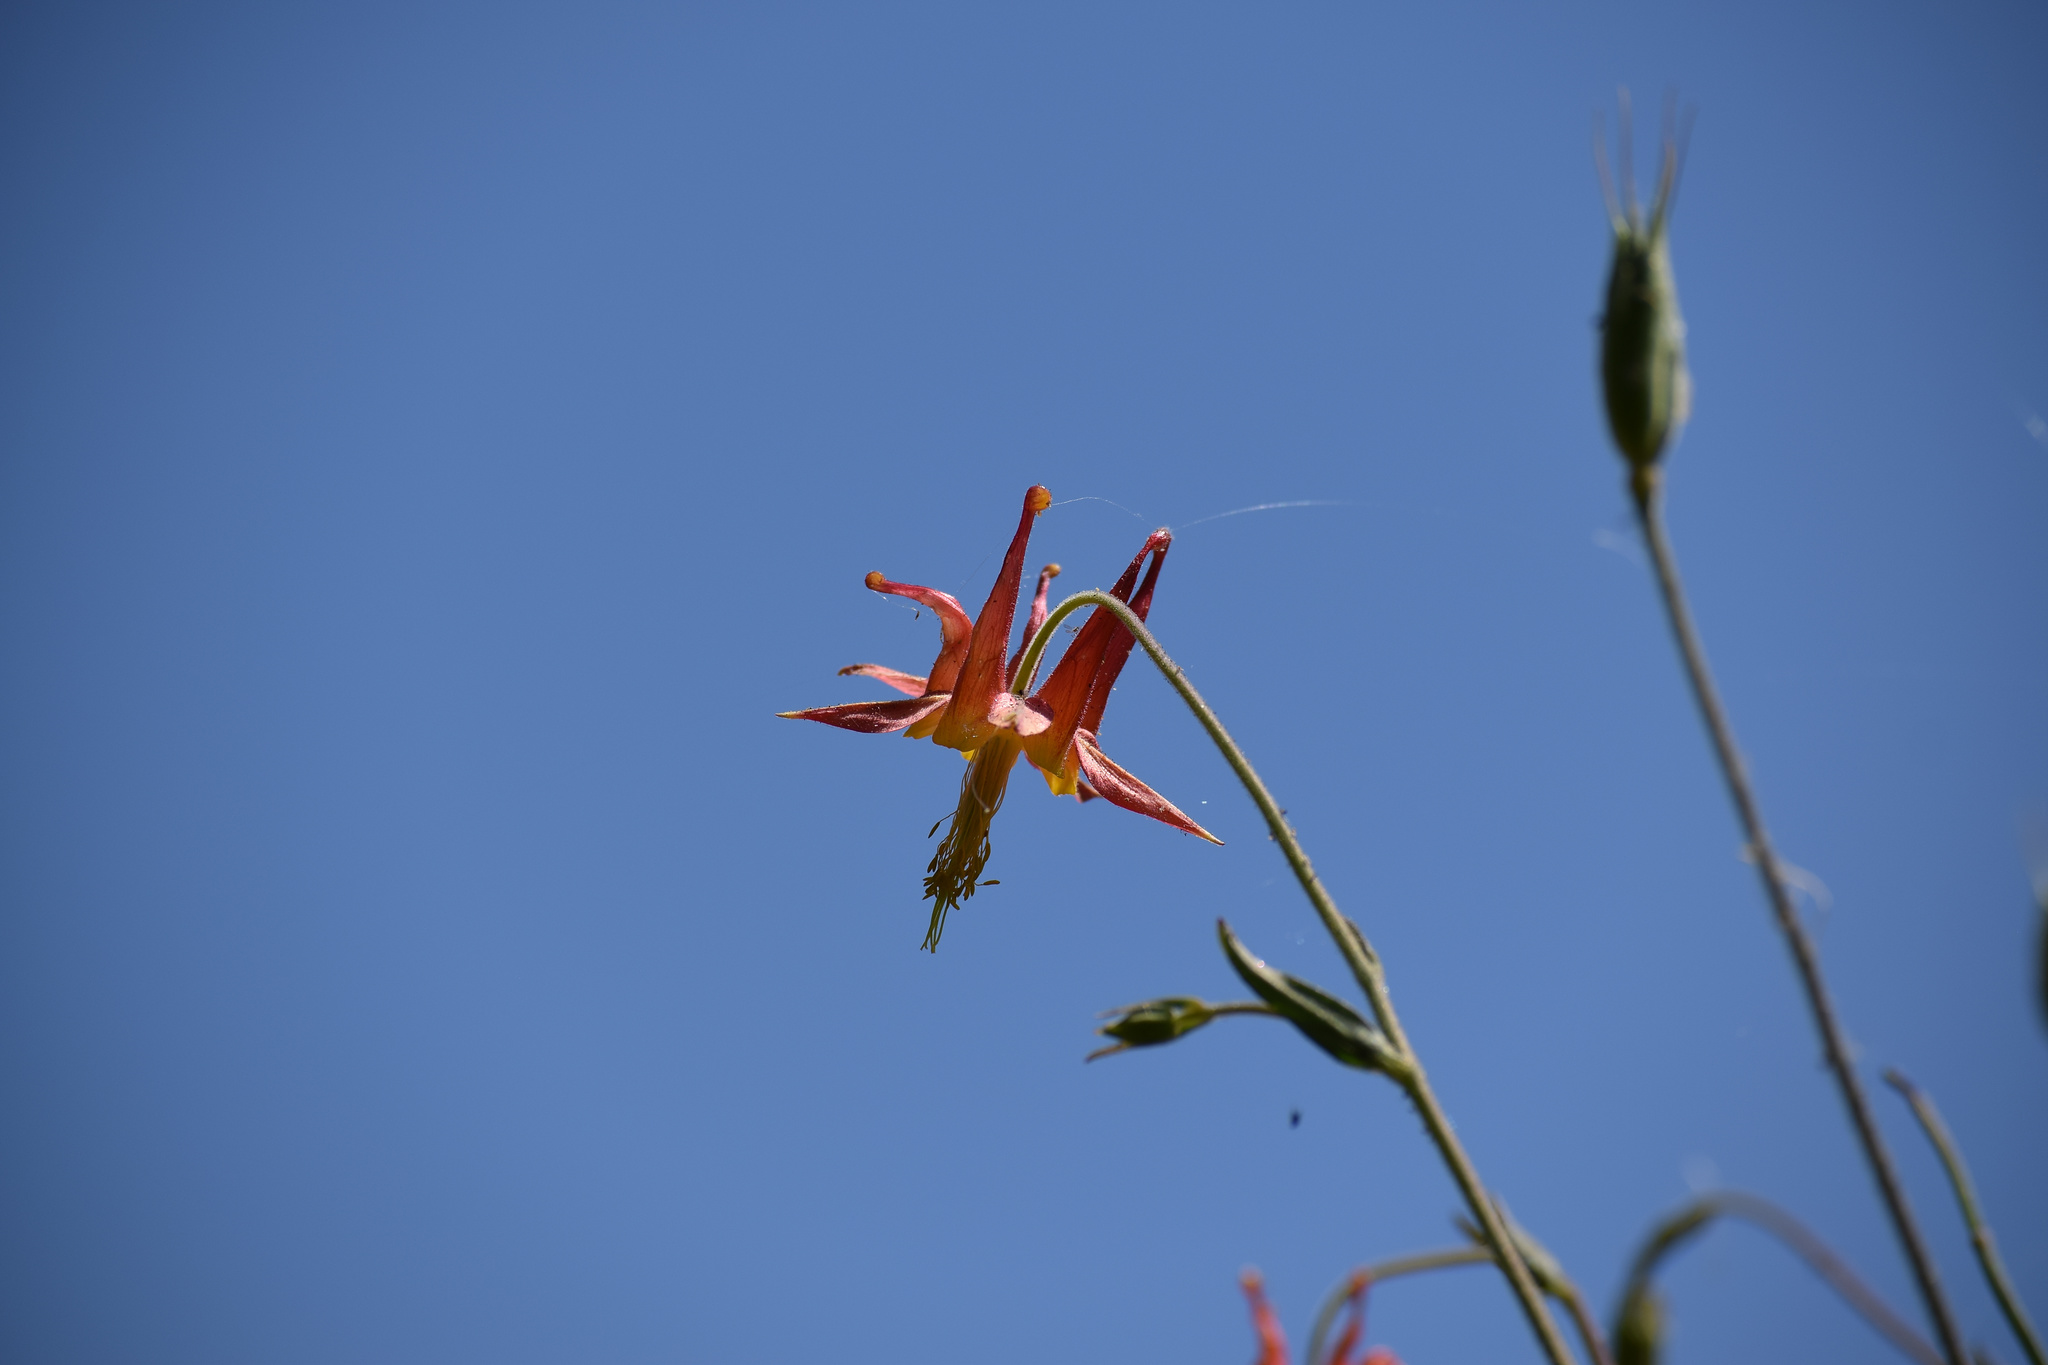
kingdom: Plantae
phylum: Tracheophyta
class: Magnoliopsida
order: Ranunculales
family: Ranunculaceae
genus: Aquilegia
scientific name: Aquilegia formosa
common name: Sitka columbine
